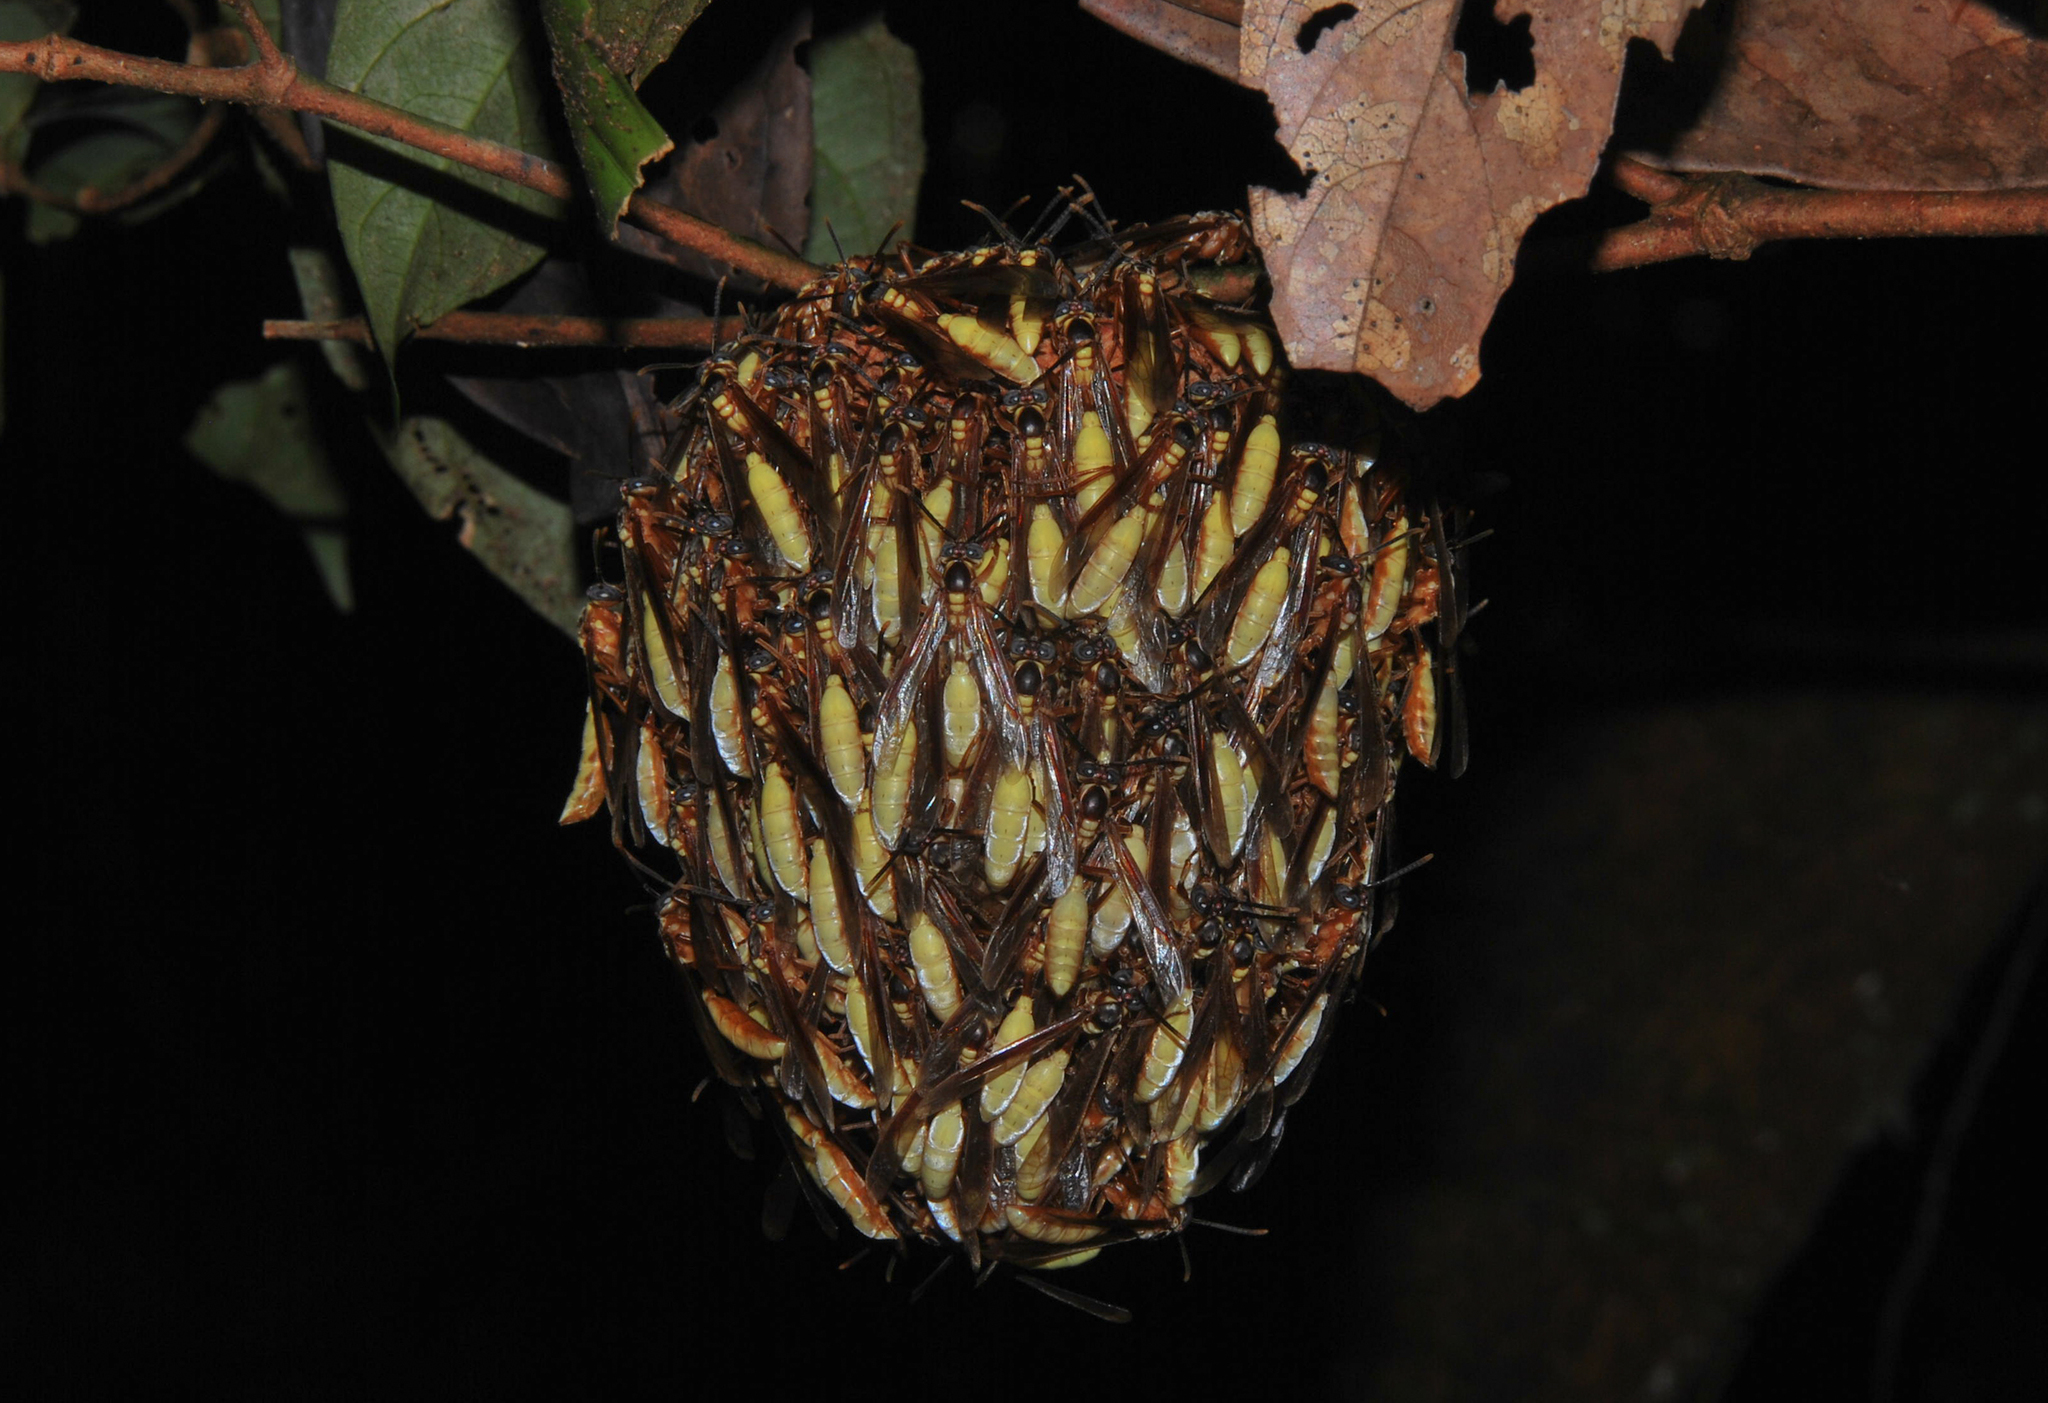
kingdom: Animalia
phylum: Arthropoda
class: Insecta
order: Hymenoptera
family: Vespidae
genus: Apoica
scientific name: Apoica pallens
